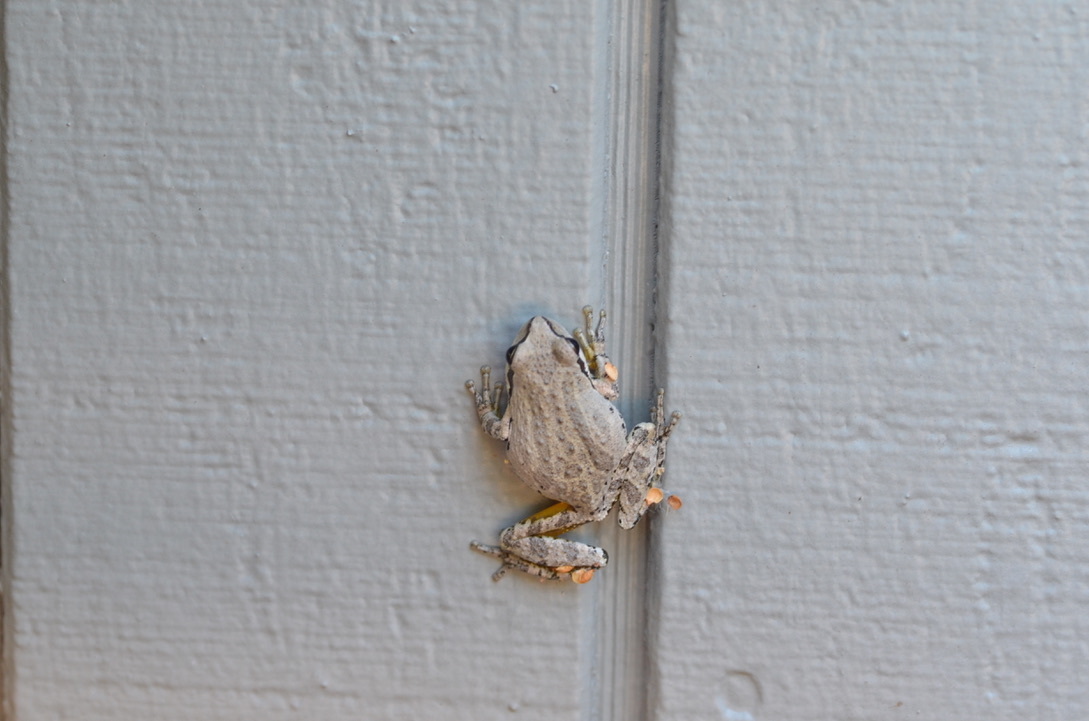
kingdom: Animalia
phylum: Chordata
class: Amphibia
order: Anura
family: Hylidae
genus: Pseudacris
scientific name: Pseudacris regilla
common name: Pacific chorus frog
